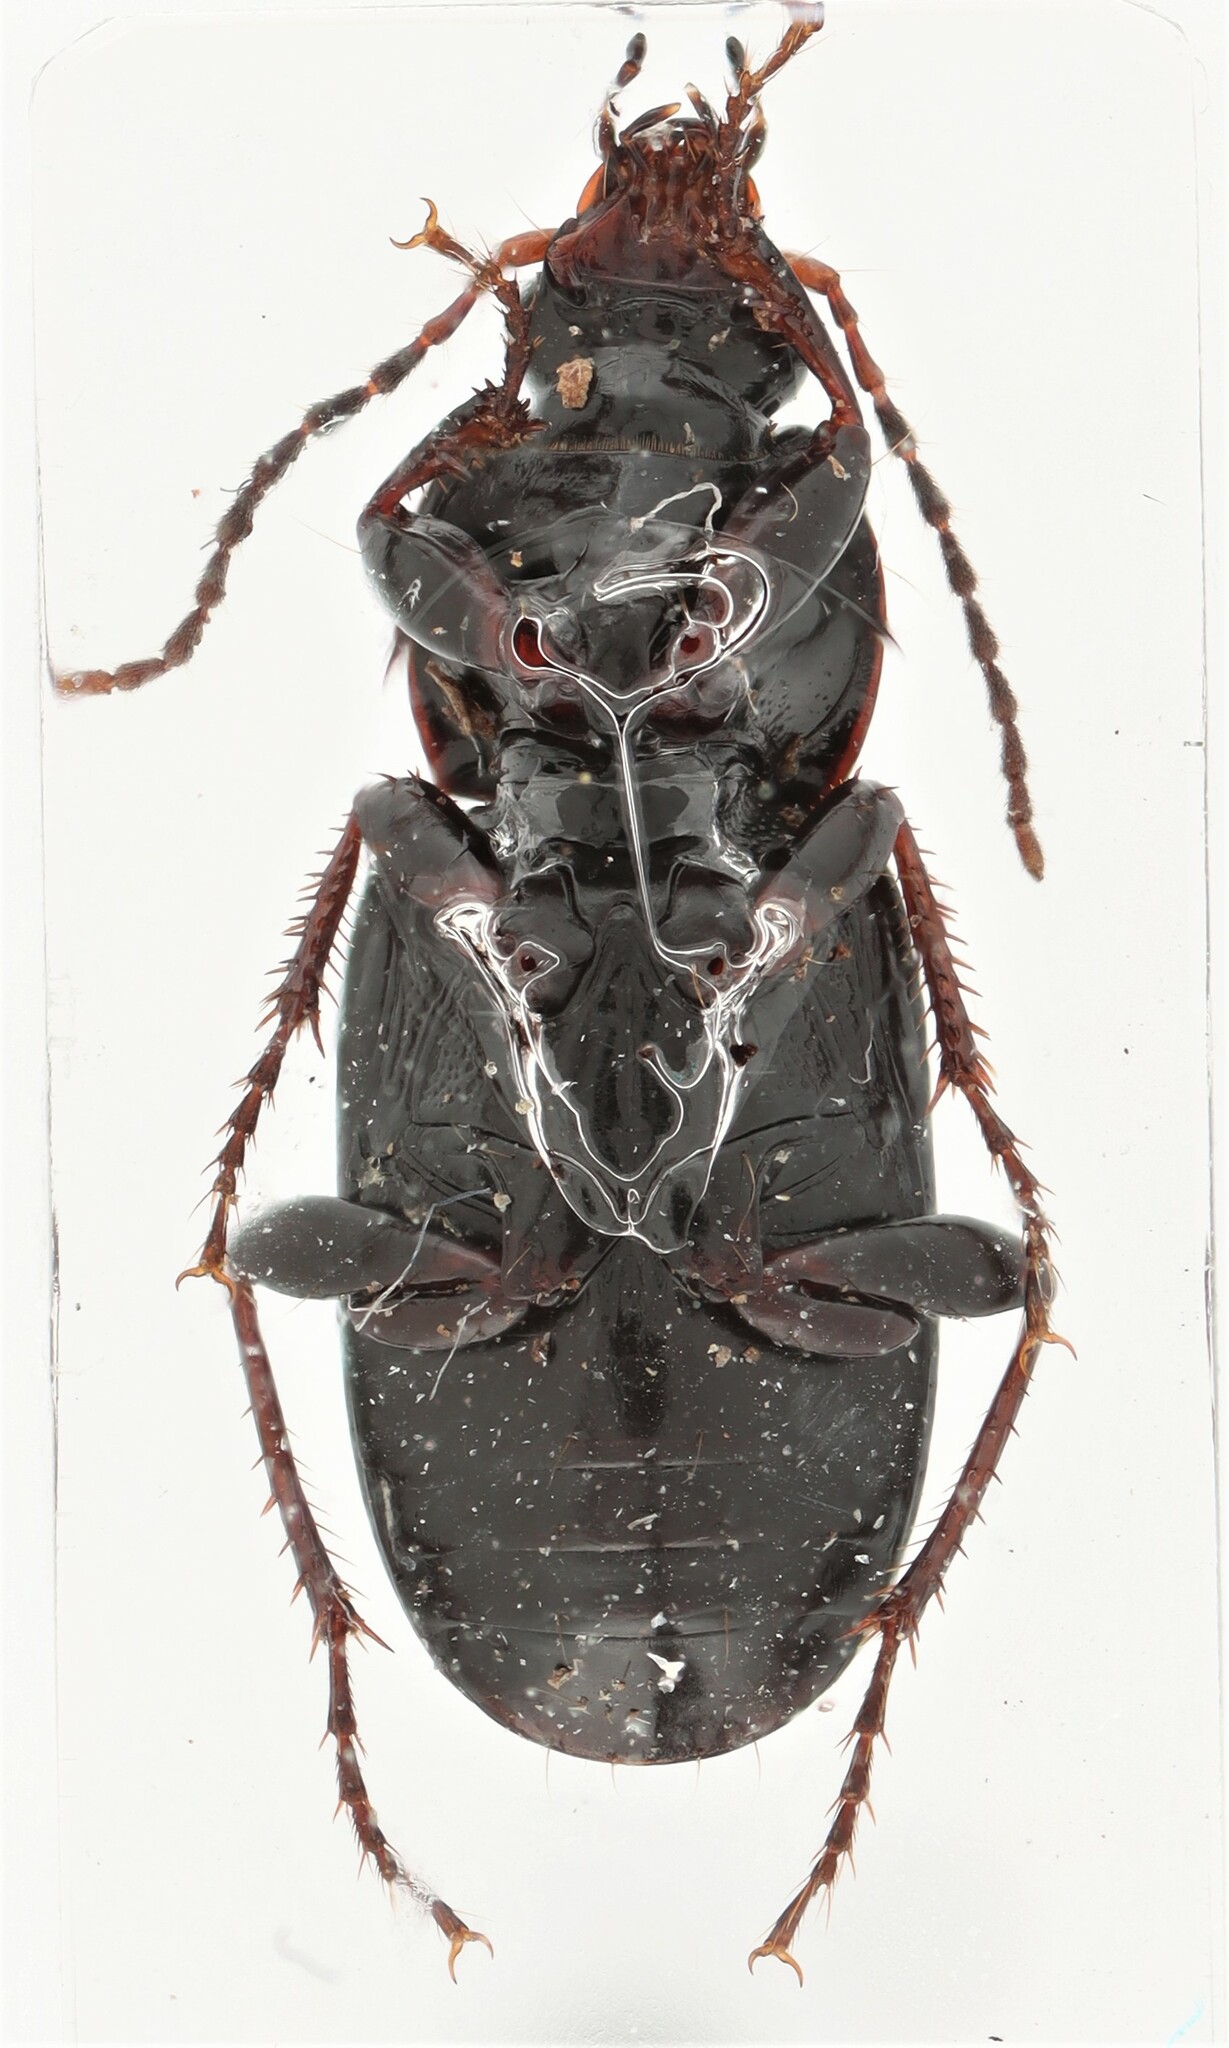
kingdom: Animalia
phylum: Arthropoda
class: Insecta
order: Coleoptera
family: Carabidae
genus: Pterostichus
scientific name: Pterostichus vernalis
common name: Spring harp ground beetle
